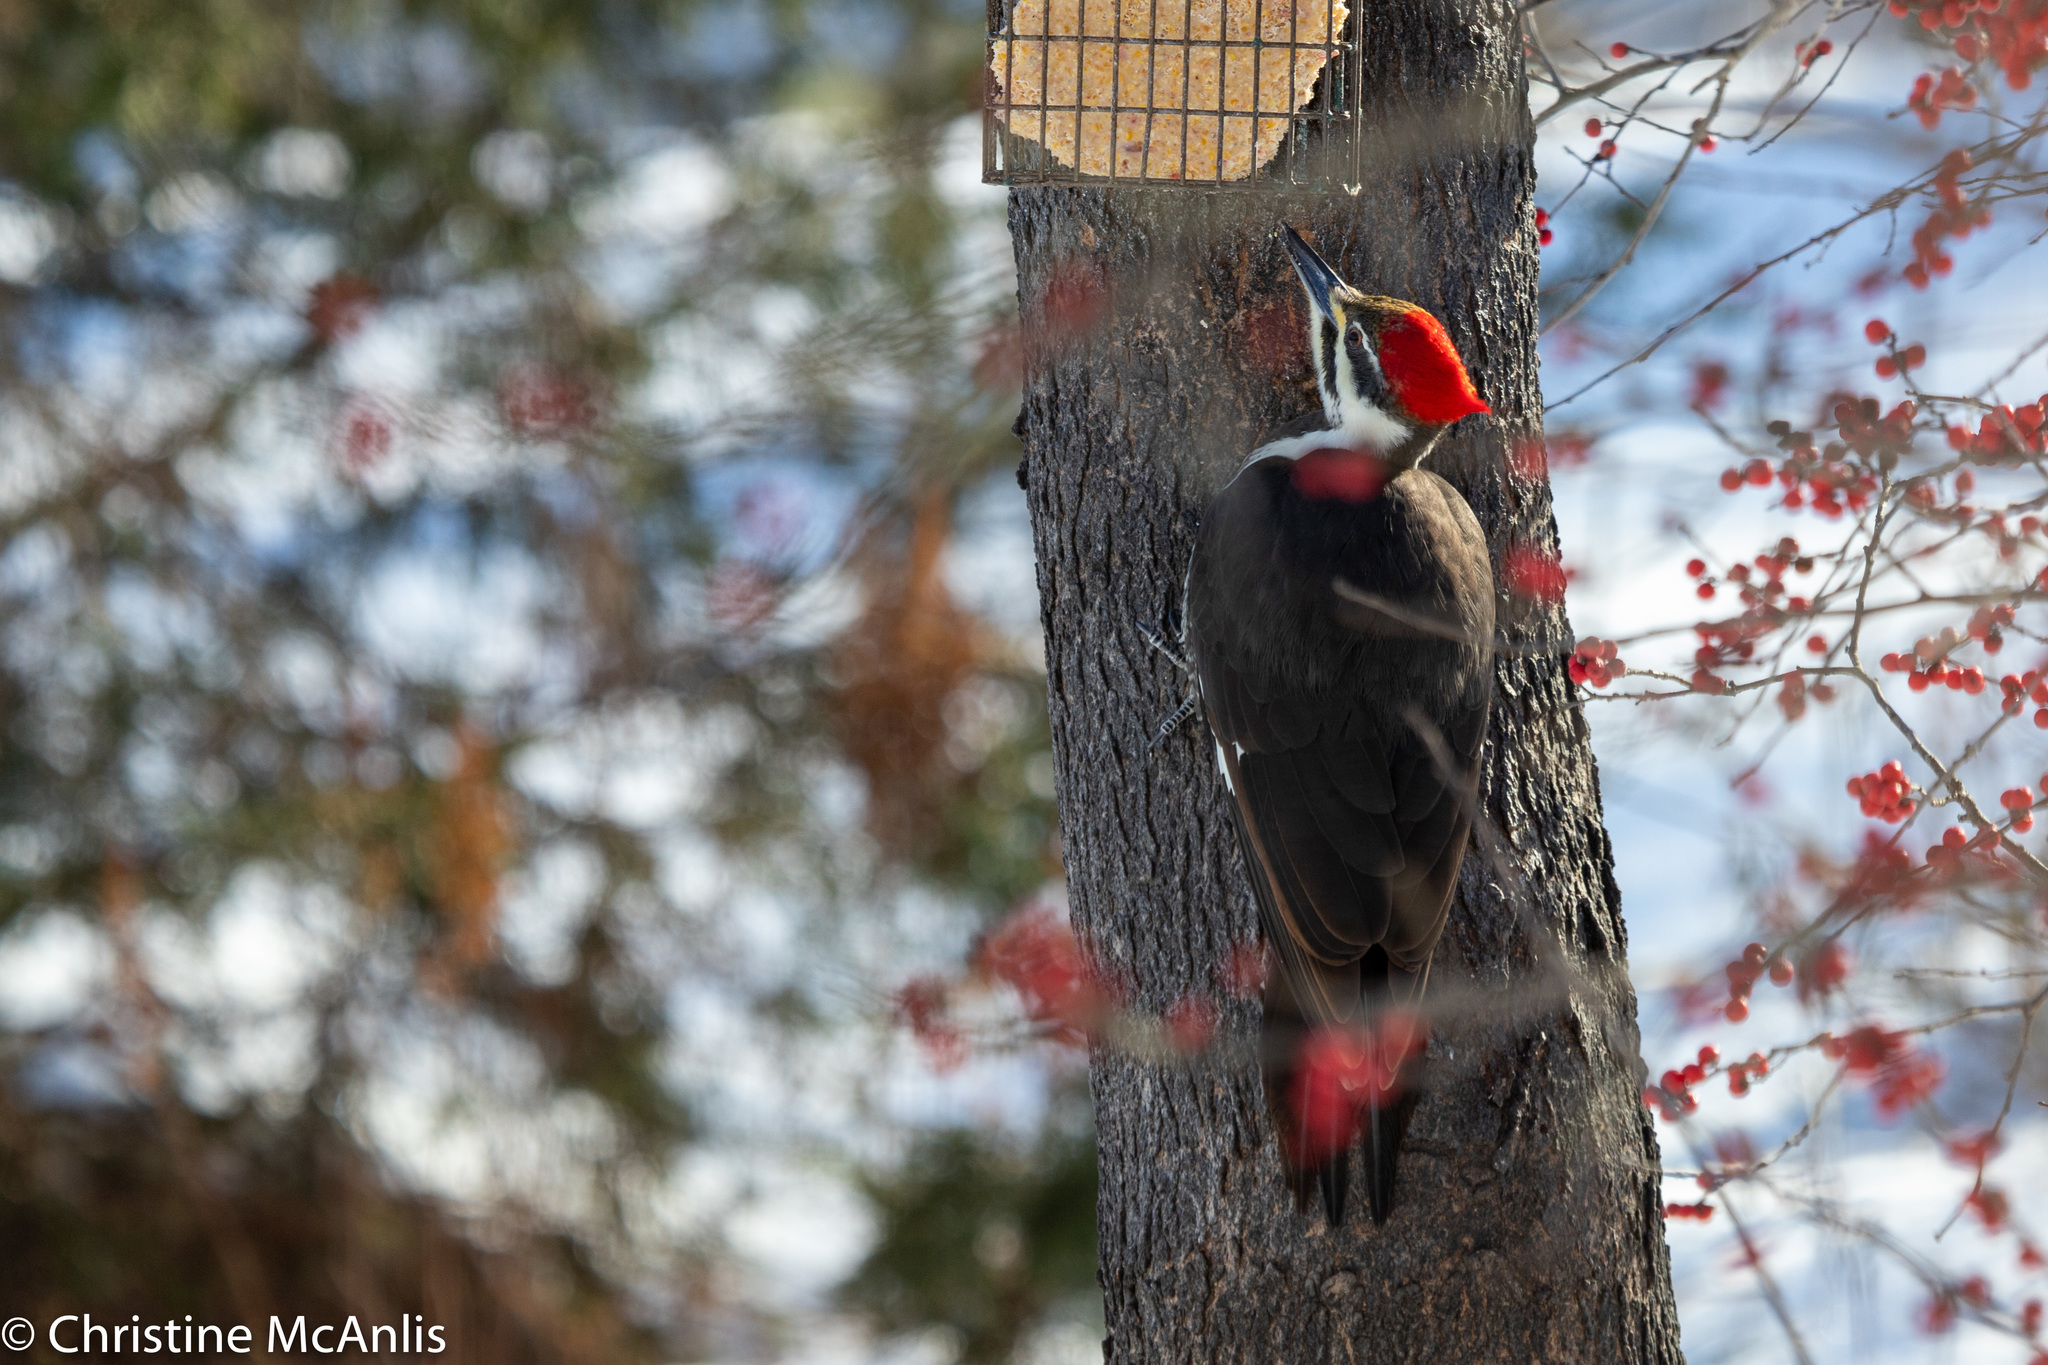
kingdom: Animalia
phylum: Chordata
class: Aves
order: Piciformes
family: Picidae
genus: Dryocopus
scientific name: Dryocopus pileatus
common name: Pileated woodpecker
